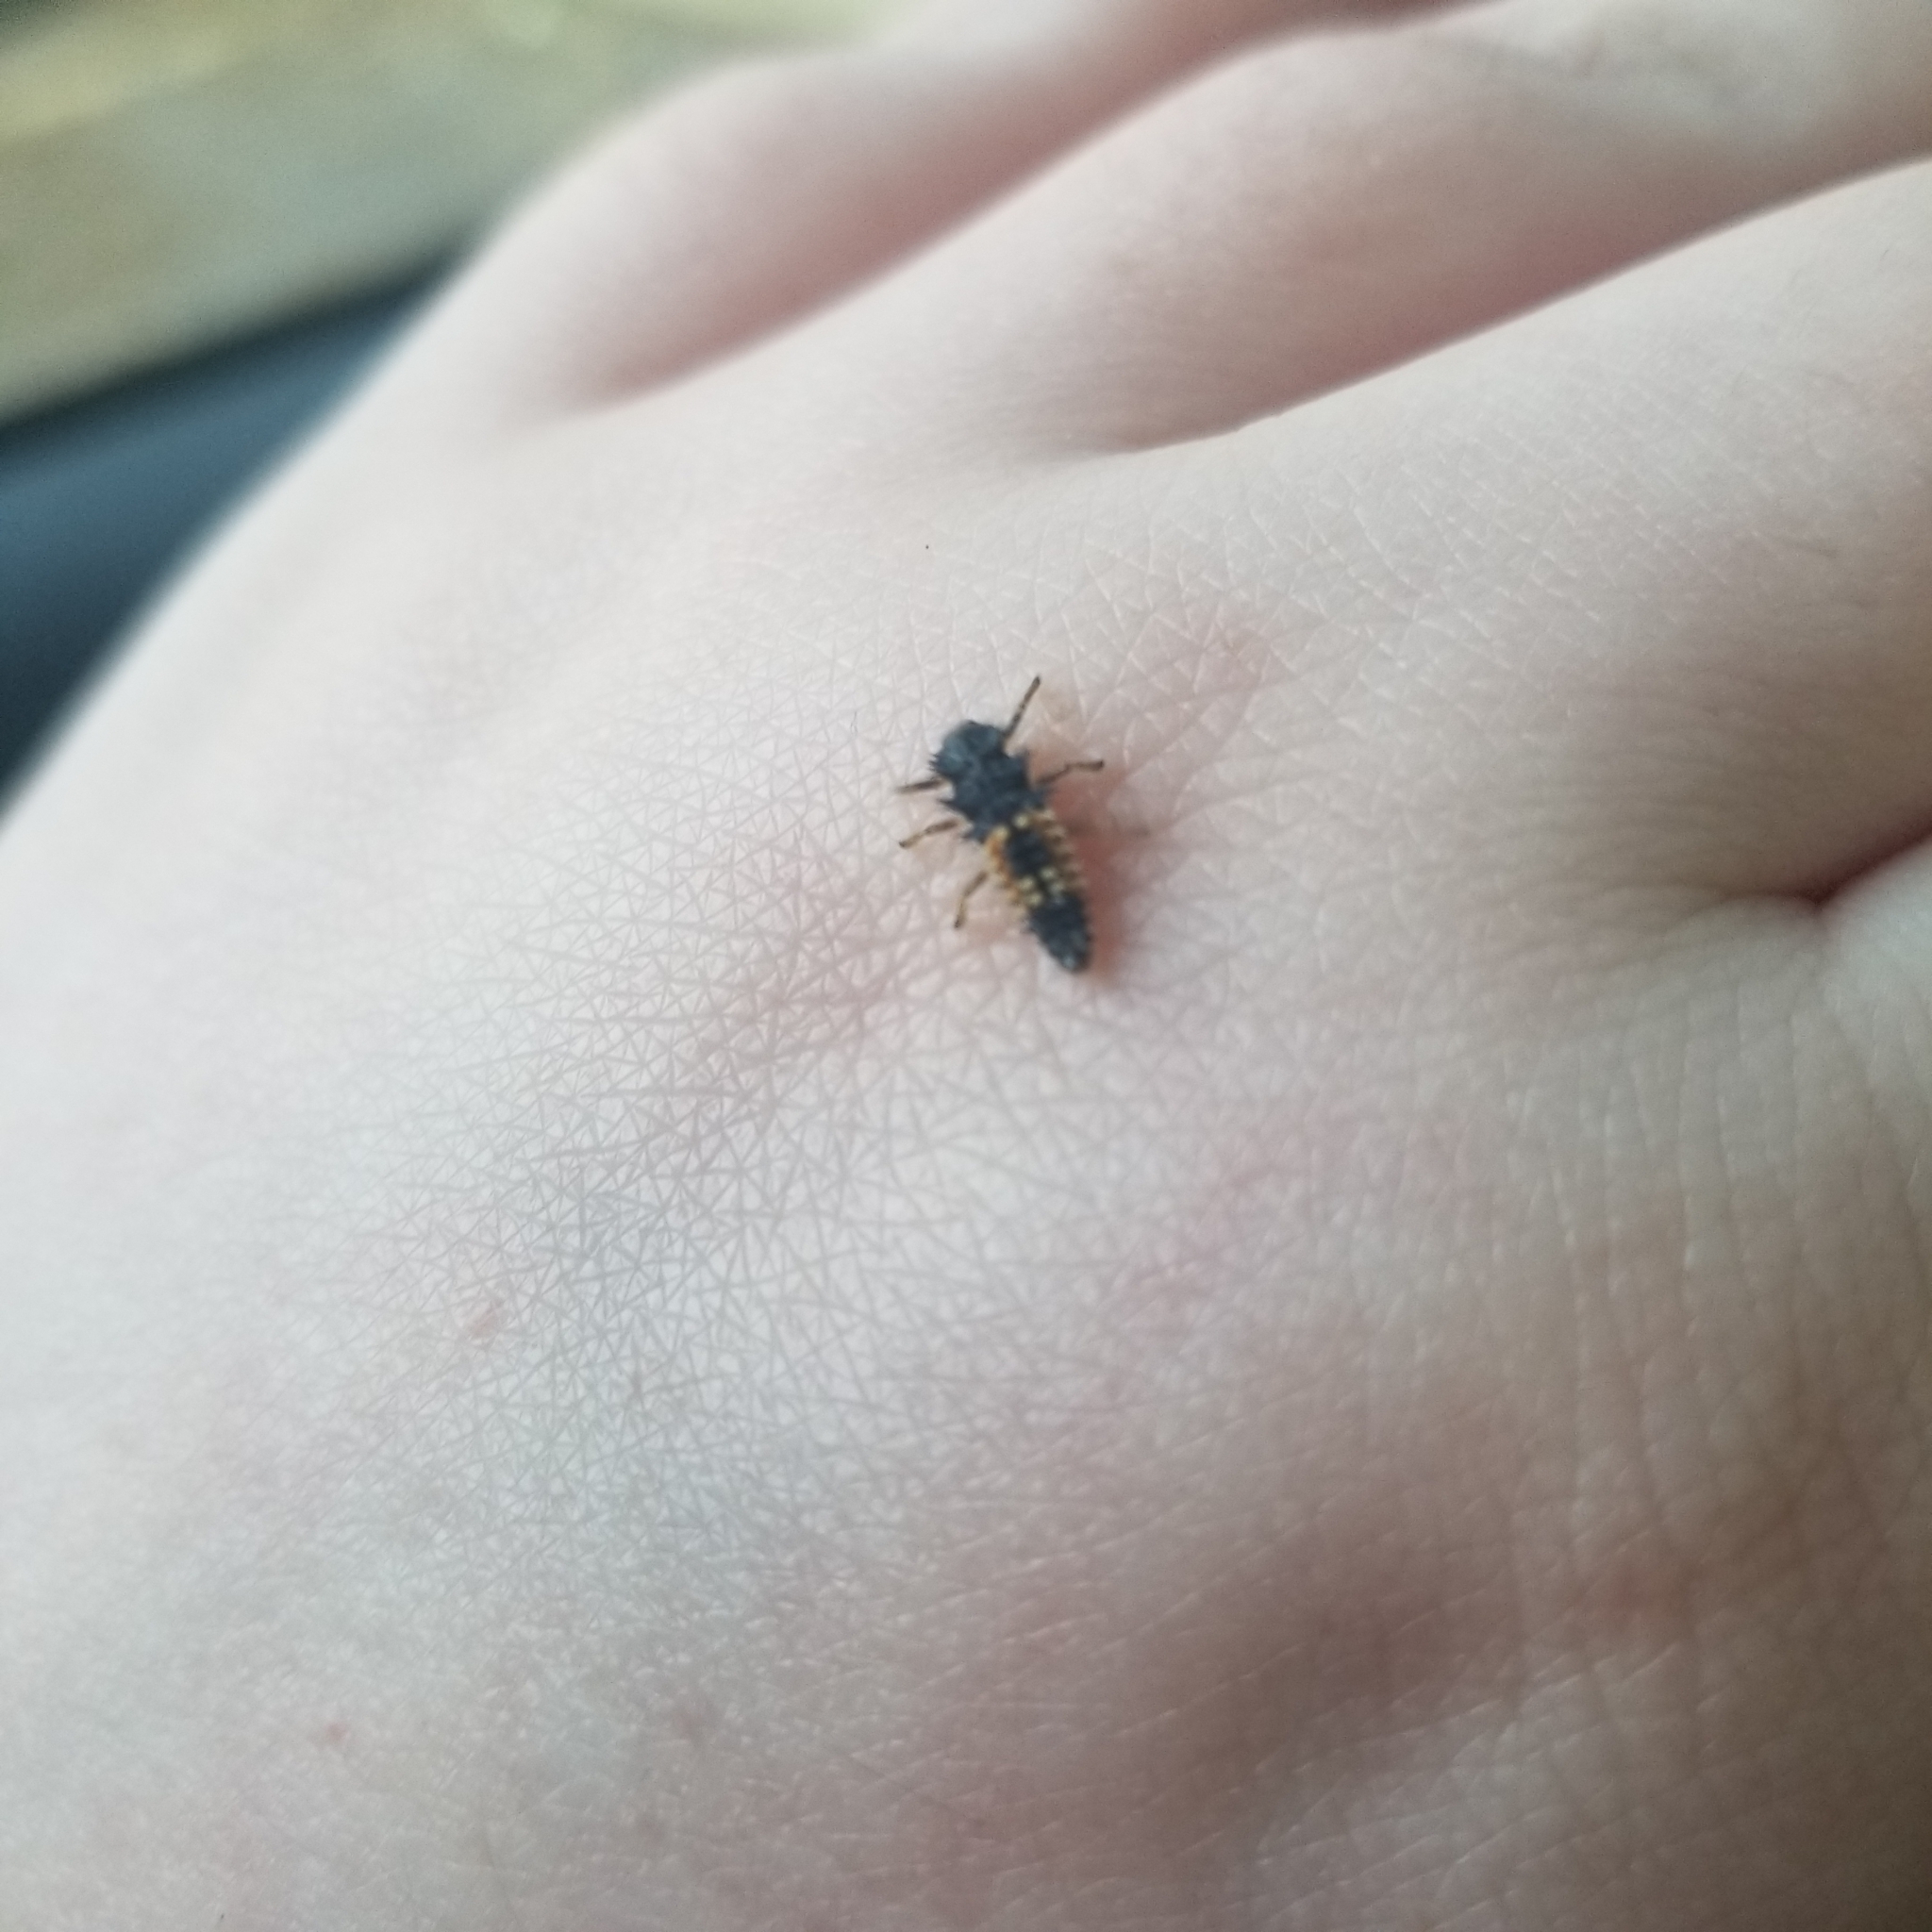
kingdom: Animalia
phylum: Arthropoda
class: Insecta
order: Coleoptera
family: Coccinellidae
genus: Harmonia
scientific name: Harmonia axyridis
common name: Harlequin ladybird
